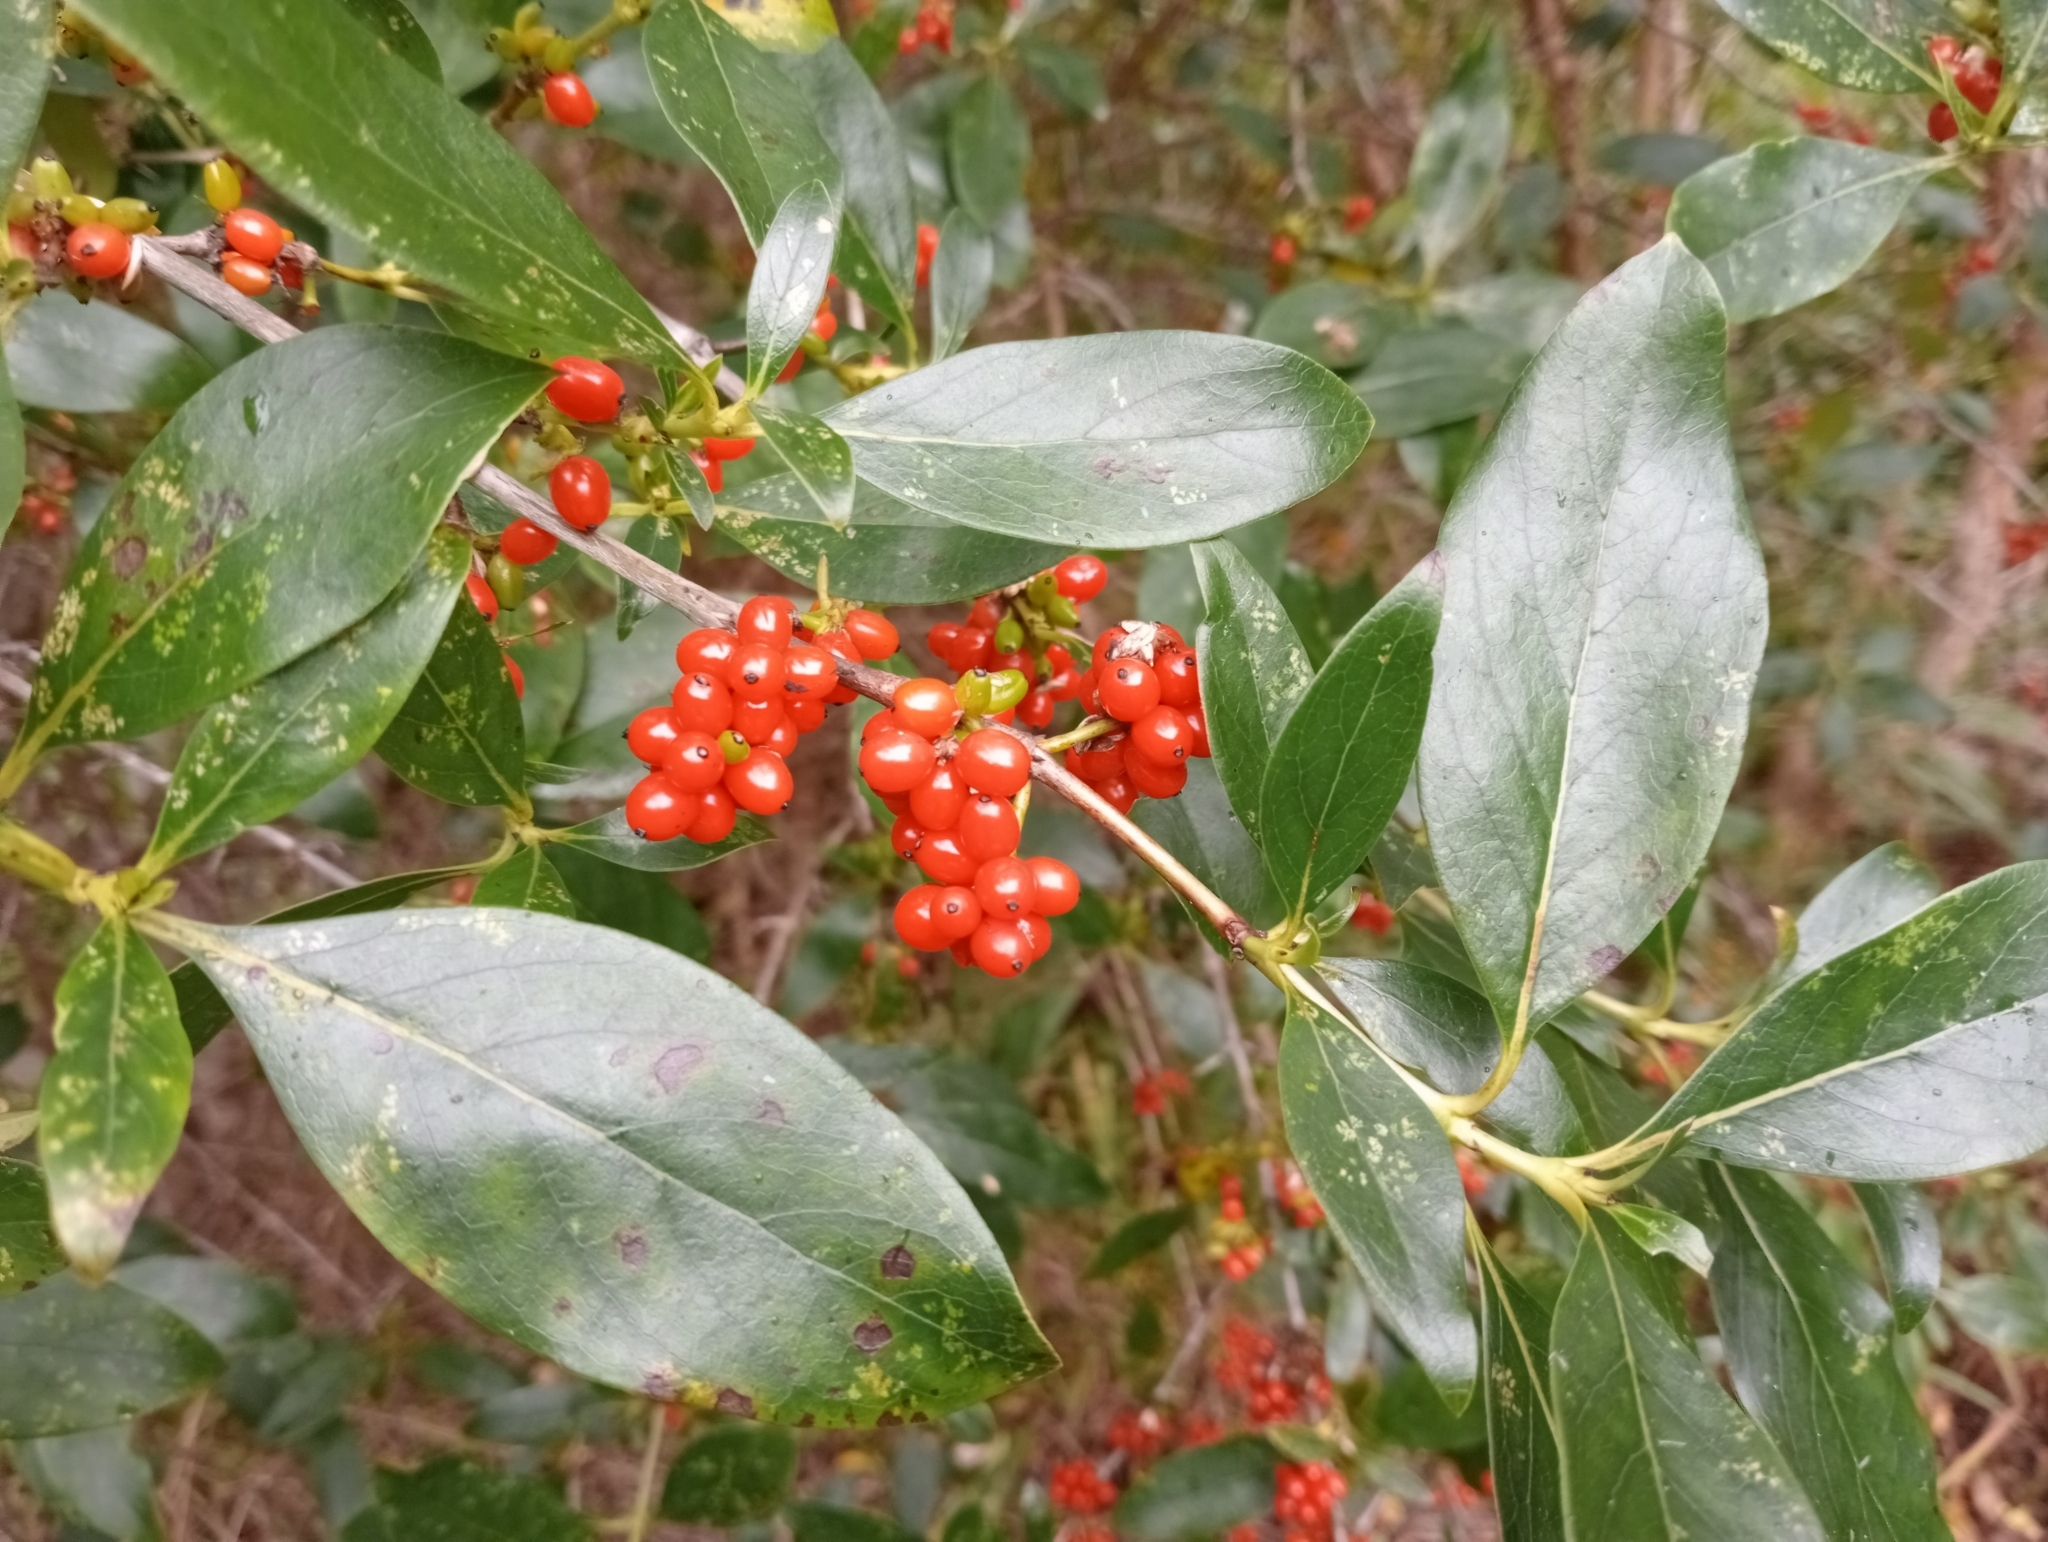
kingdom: Plantae
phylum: Tracheophyta
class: Magnoliopsida
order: Gentianales
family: Rubiaceae
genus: Coprosma
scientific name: Coprosma robusta
